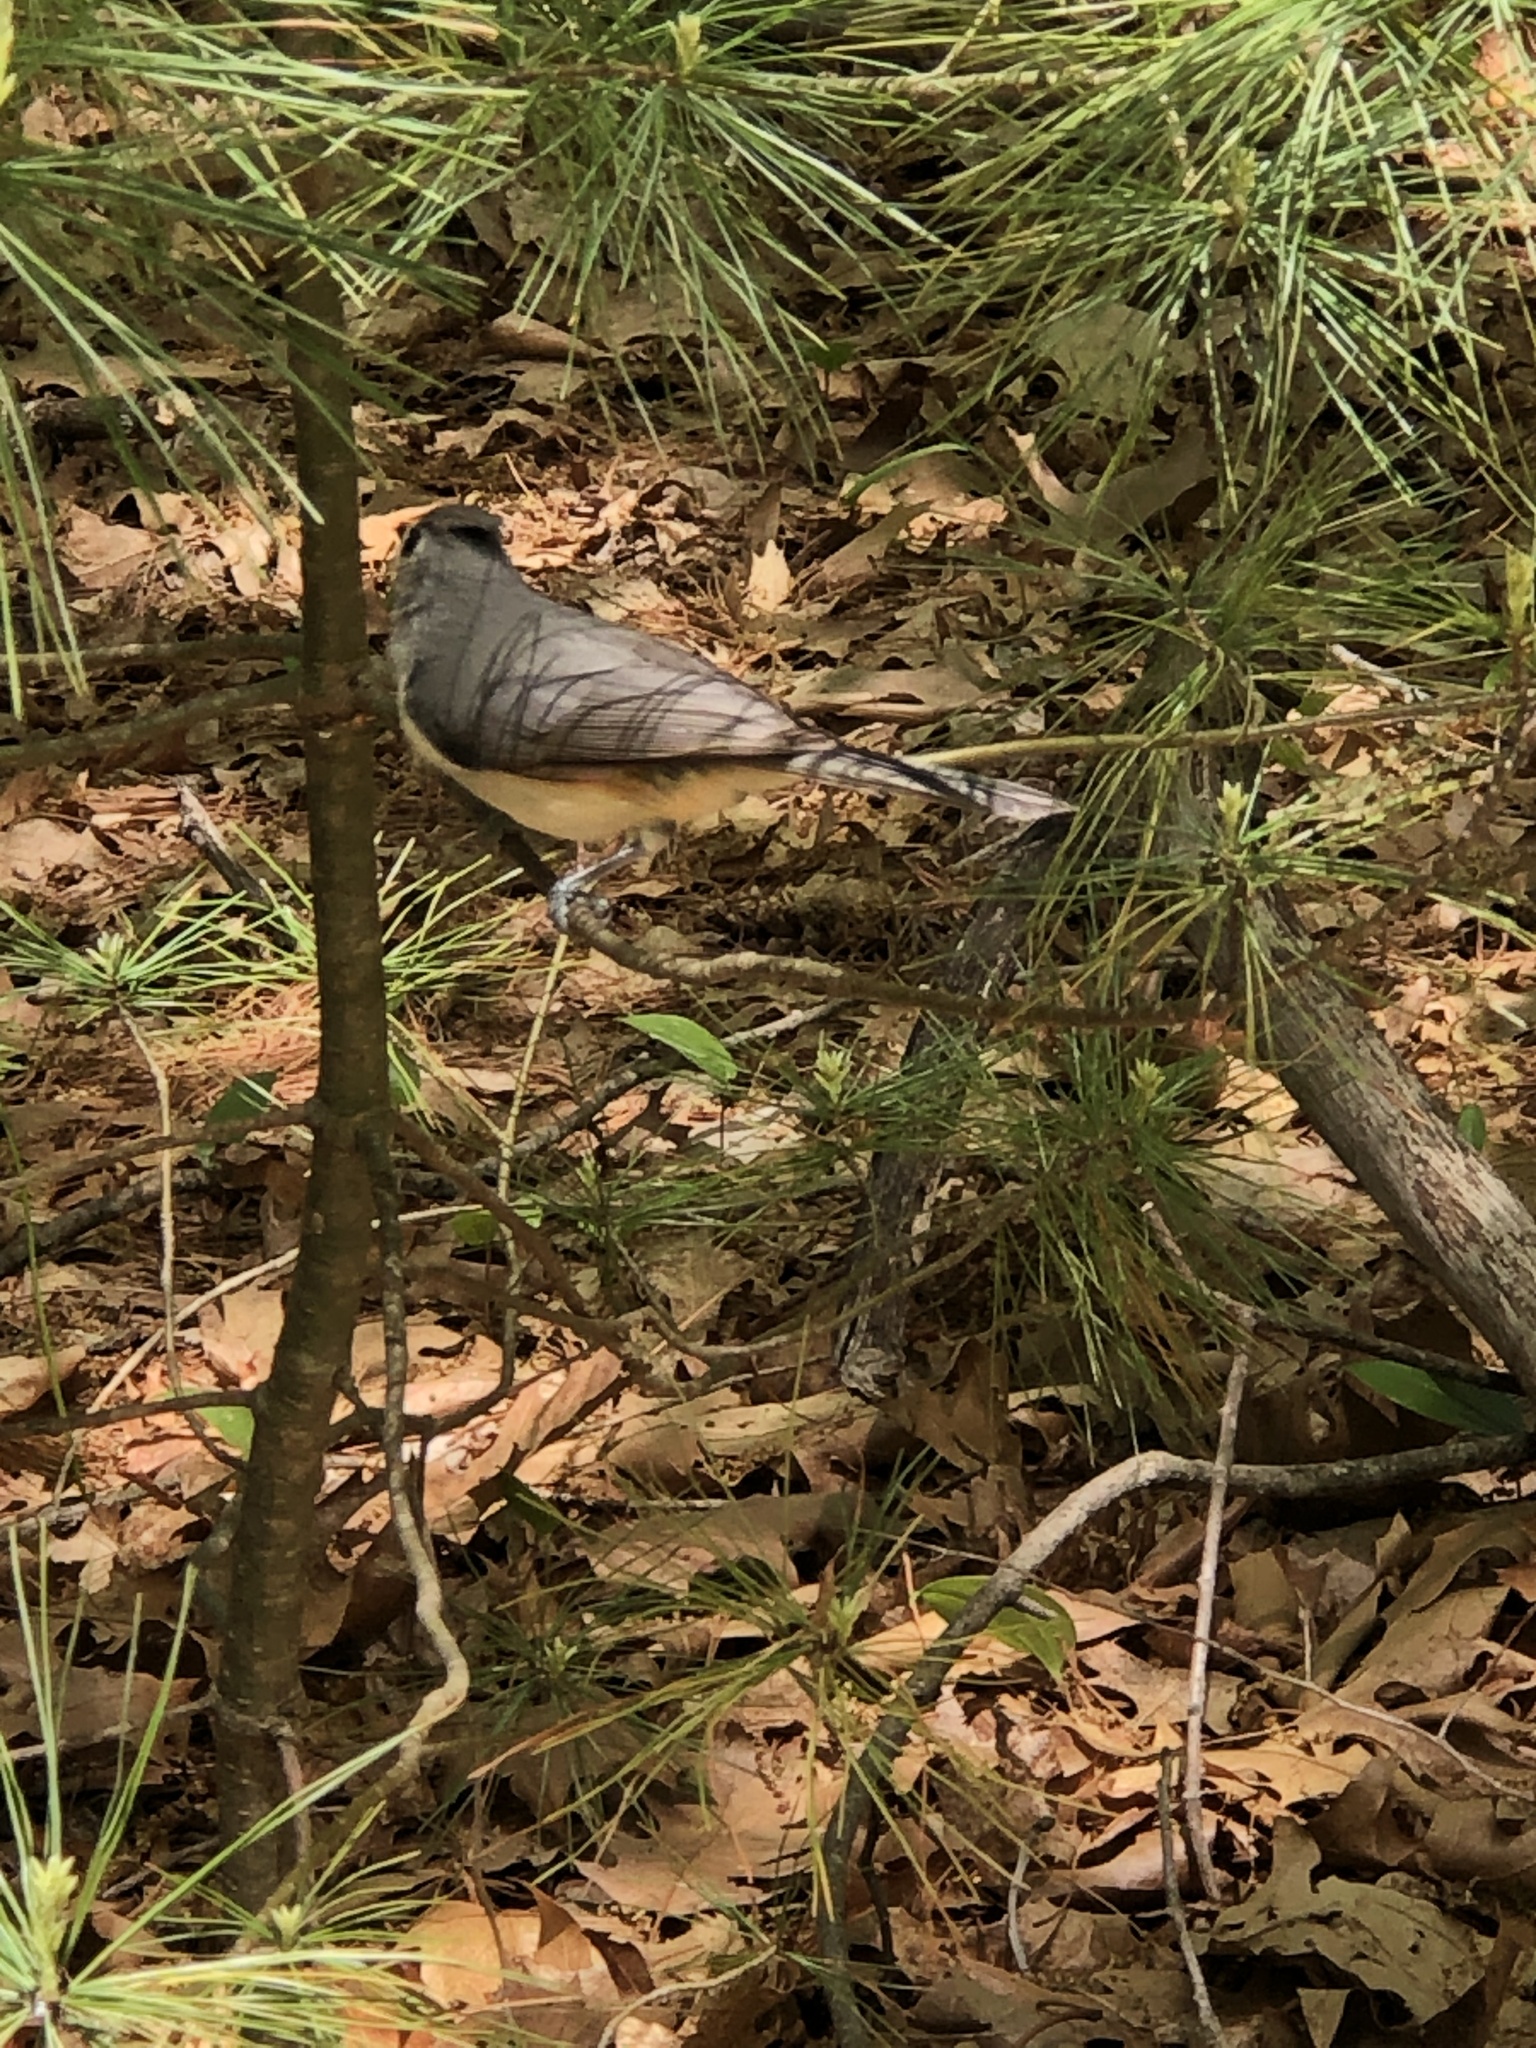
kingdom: Animalia
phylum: Chordata
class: Aves
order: Passeriformes
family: Paridae
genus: Baeolophus
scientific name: Baeolophus bicolor
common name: Tufted titmouse
